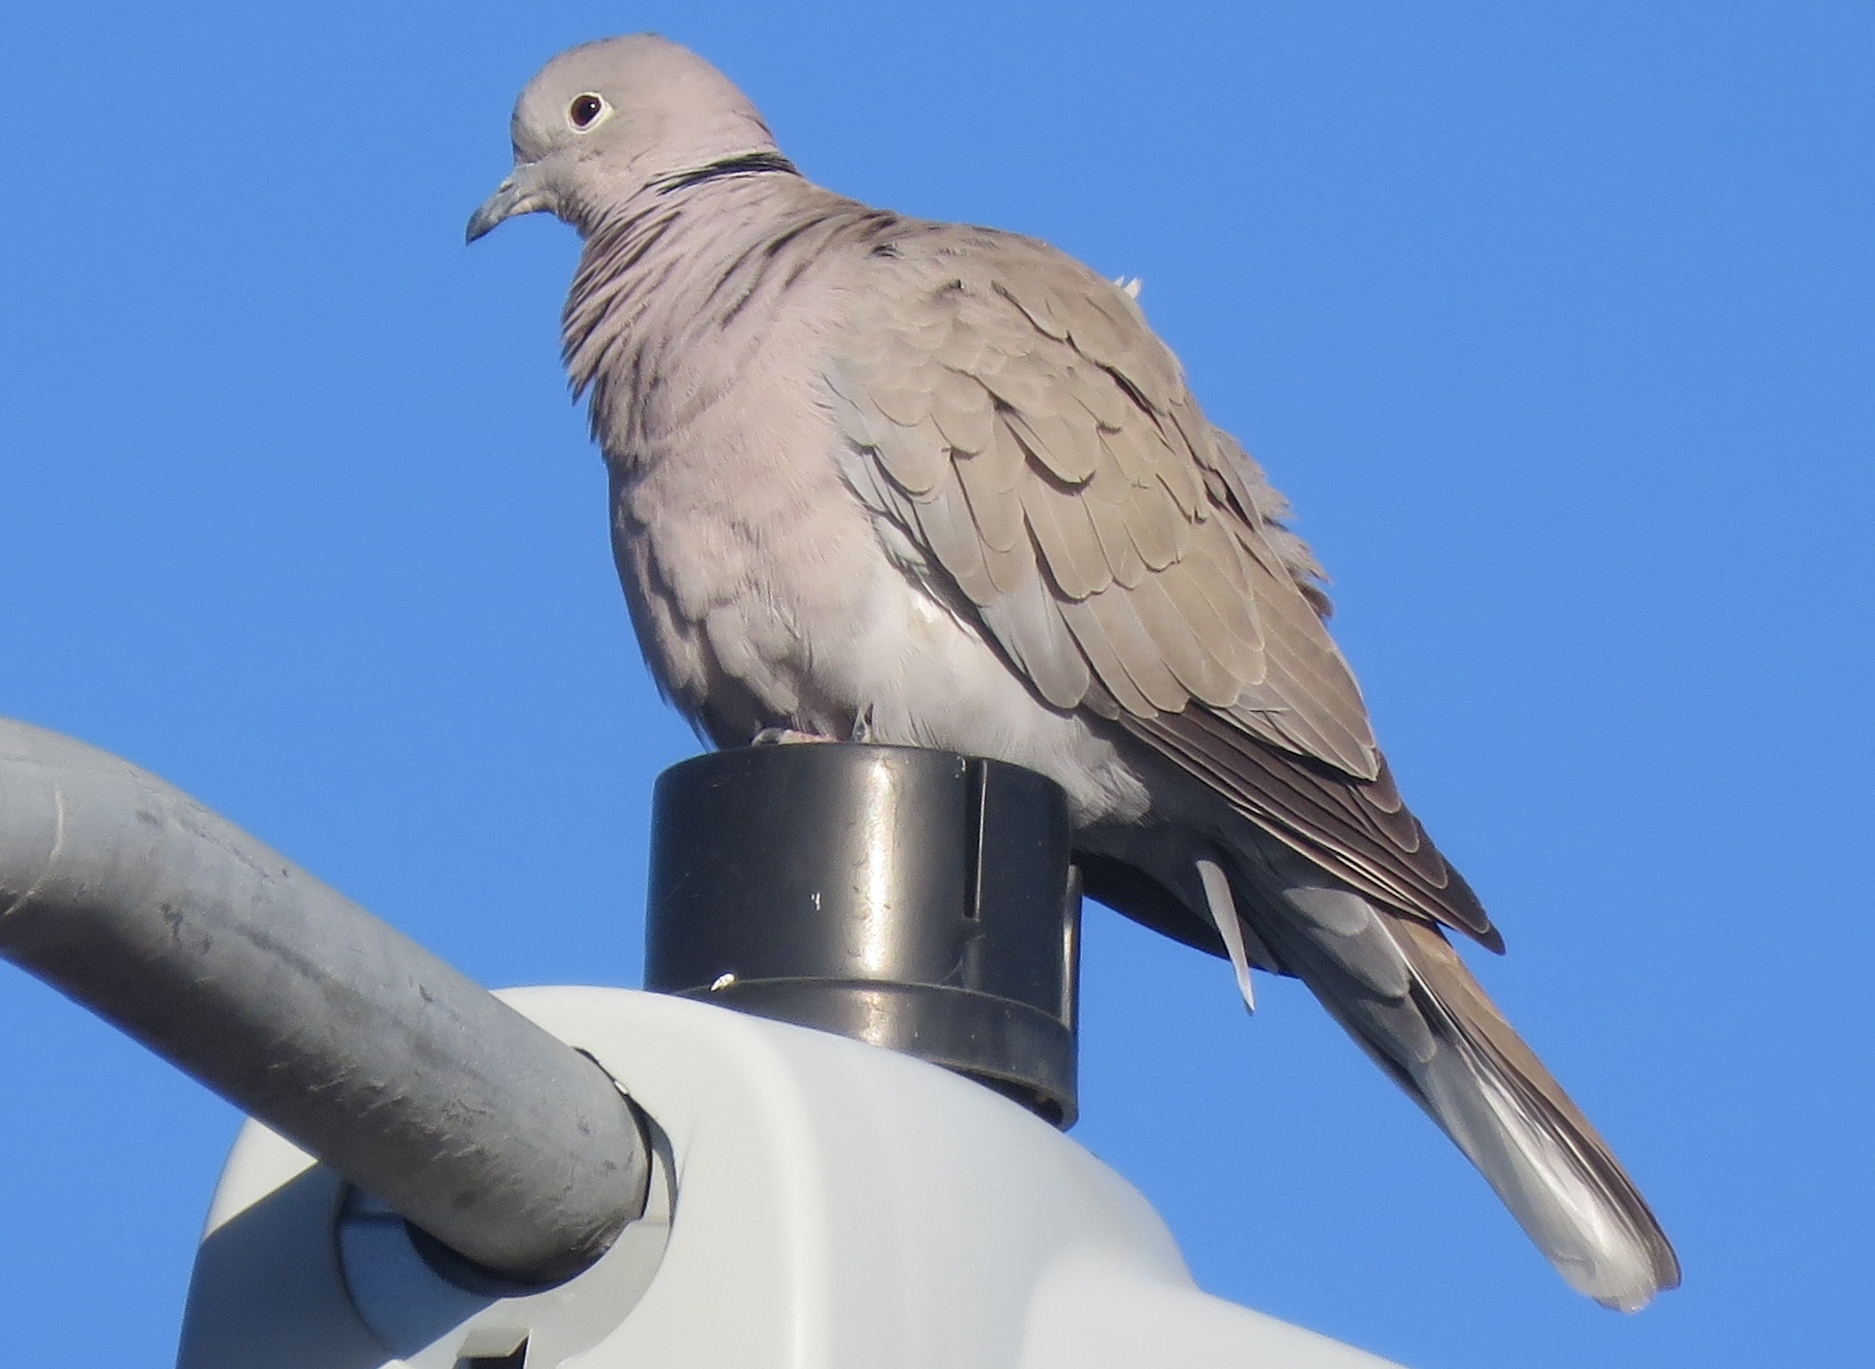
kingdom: Animalia
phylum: Chordata
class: Aves
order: Columbiformes
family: Columbidae
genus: Streptopelia
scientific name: Streptopelia decaocto
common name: Eurasian collared dove
